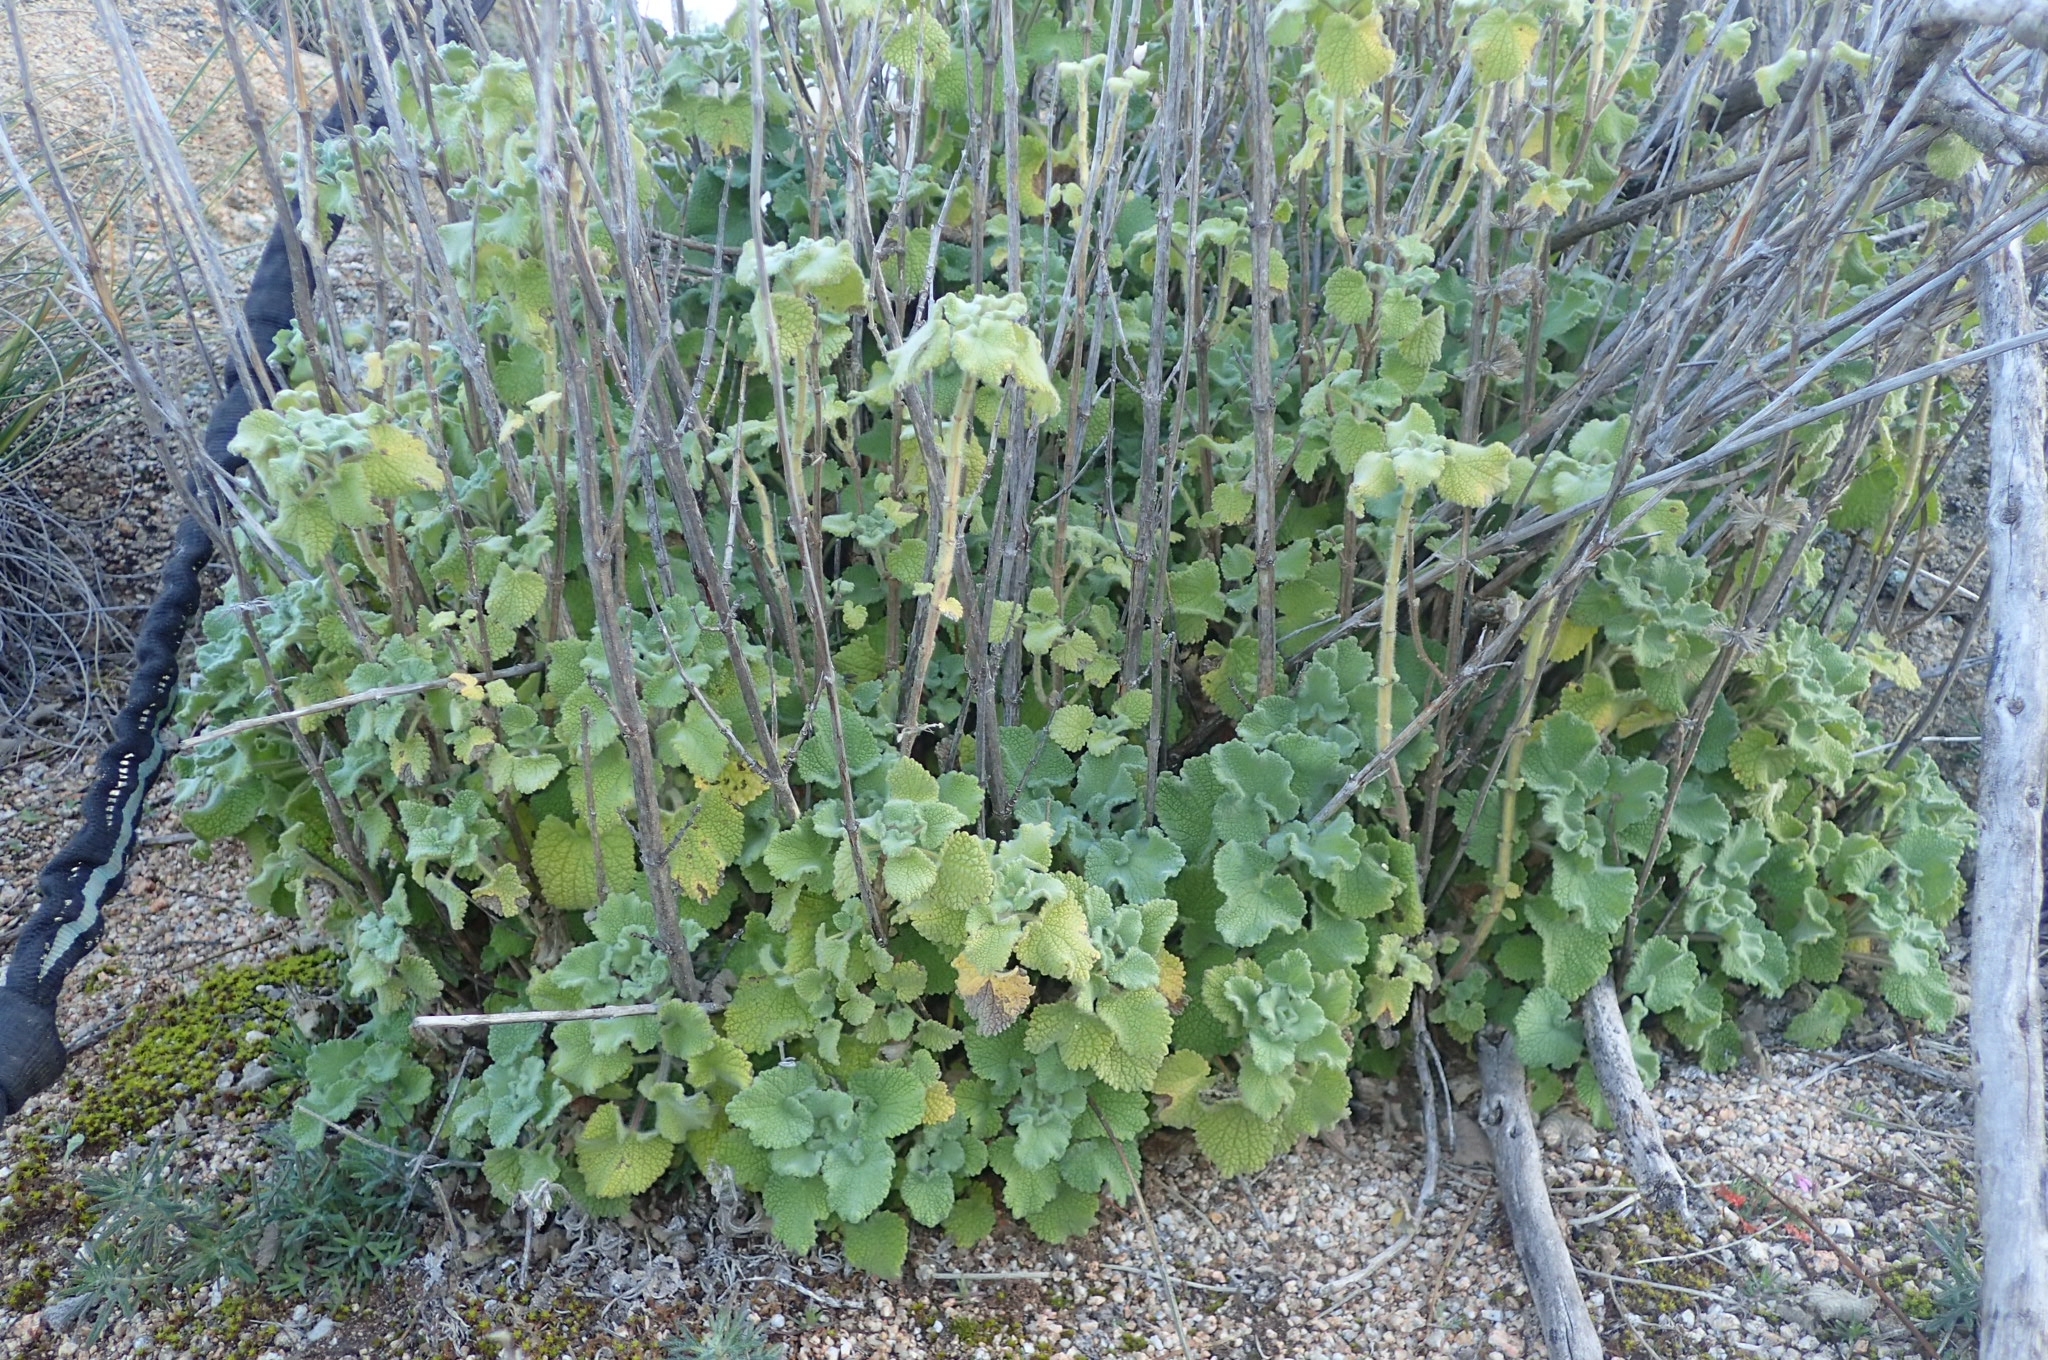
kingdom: Plantae
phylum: Tracheophyta
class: Magnoliopsida
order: Lamiales
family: Lamiaceae
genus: Pseudodictamnus
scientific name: Pseudodictamnus hirsutus
